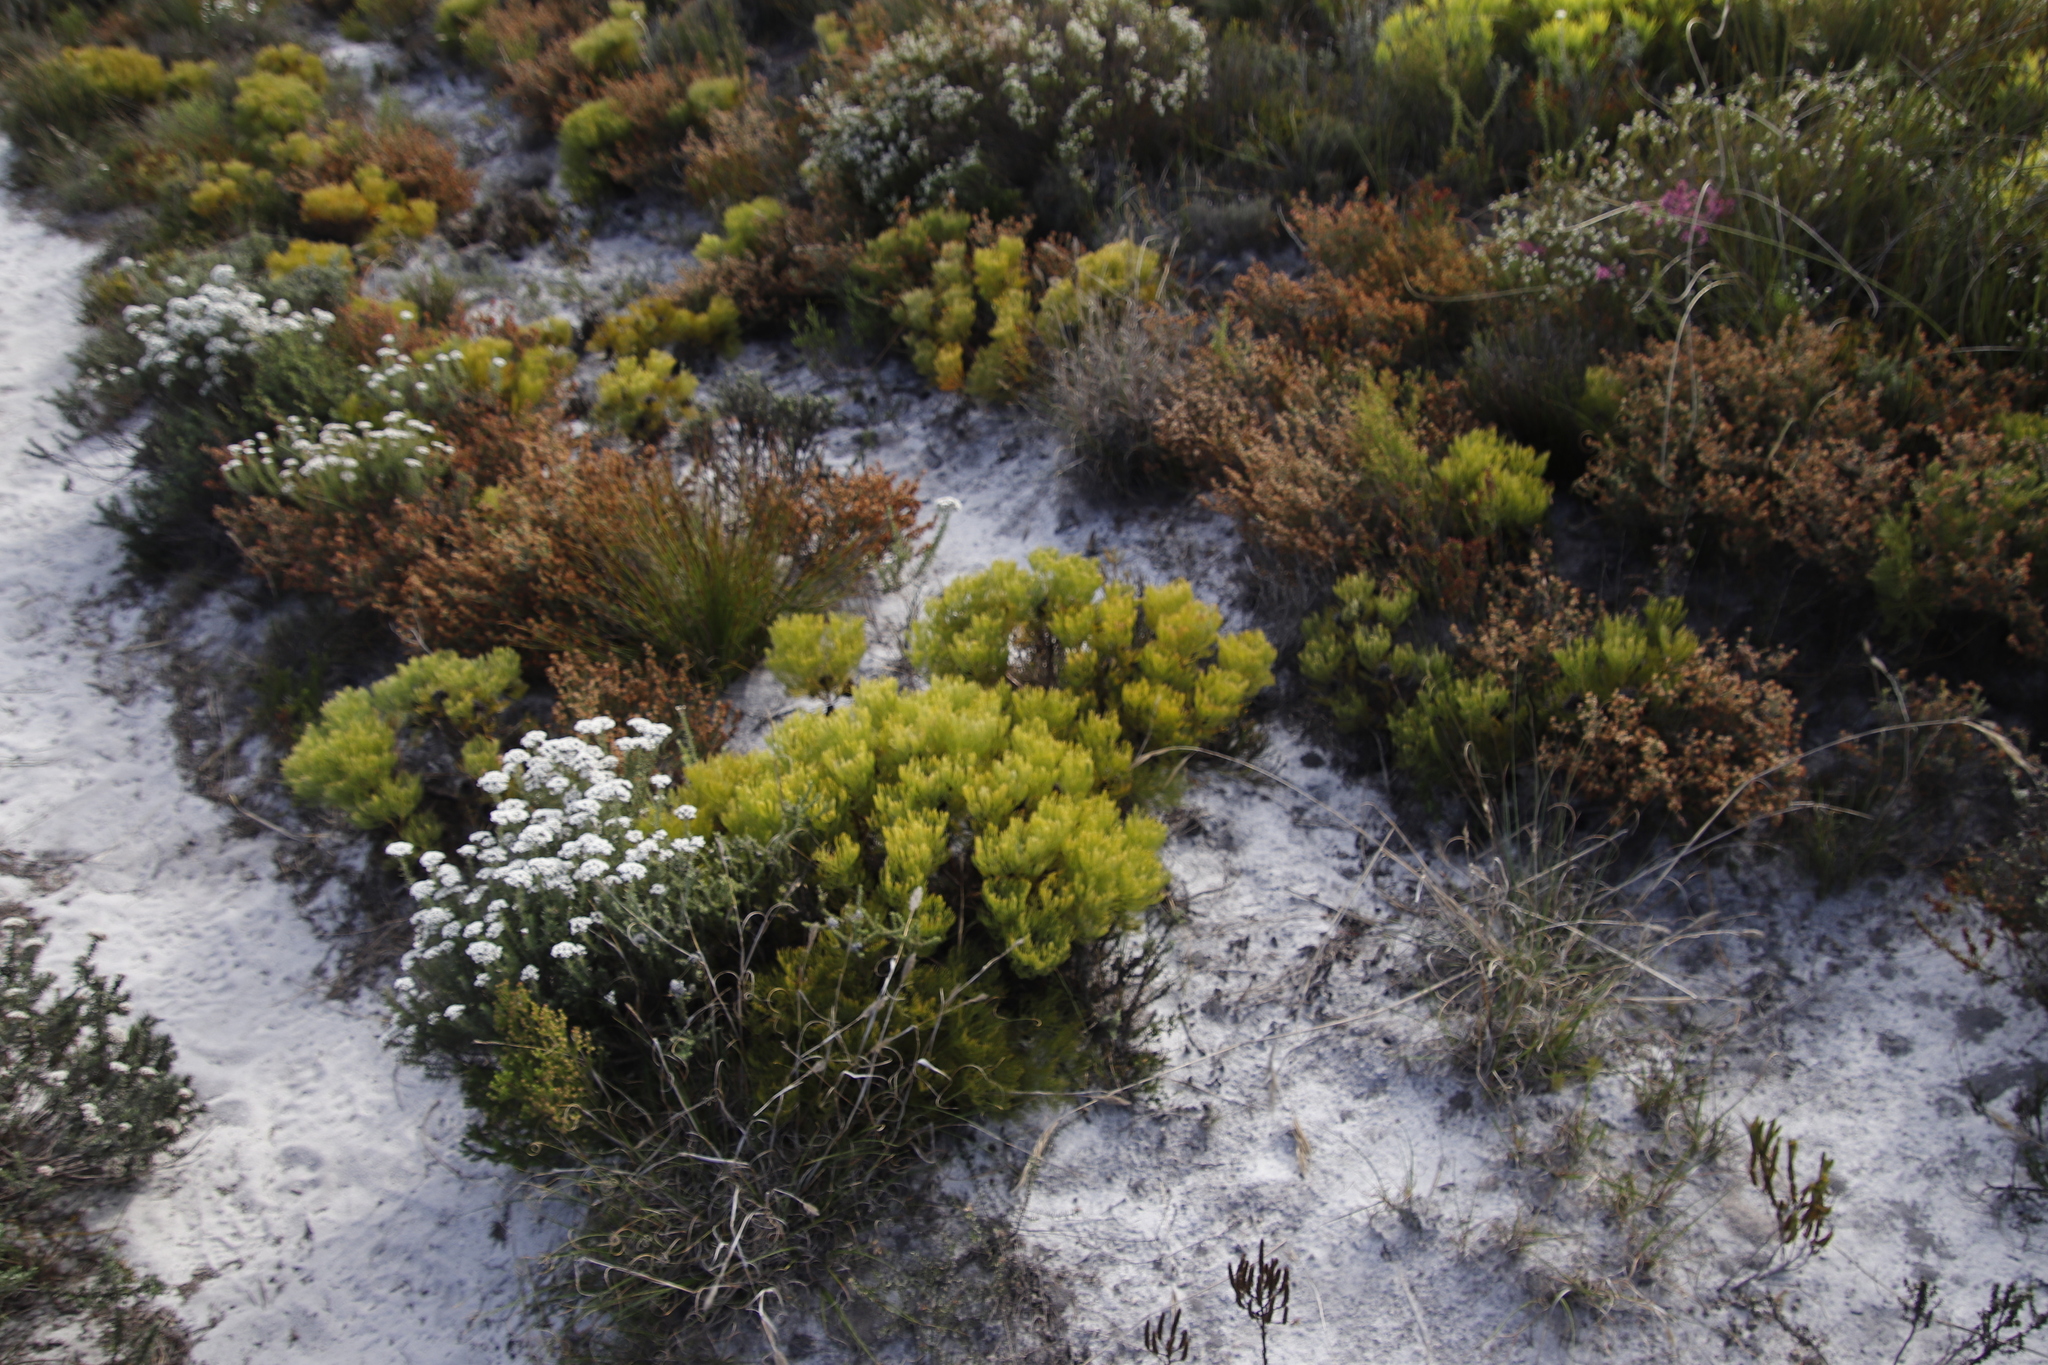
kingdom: Plantae
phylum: Tracheophyta
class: Magnoliopsida
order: Proteales
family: Proteaceae
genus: Serruria
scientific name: Serruria glomerata
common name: Cluster spiderhead
